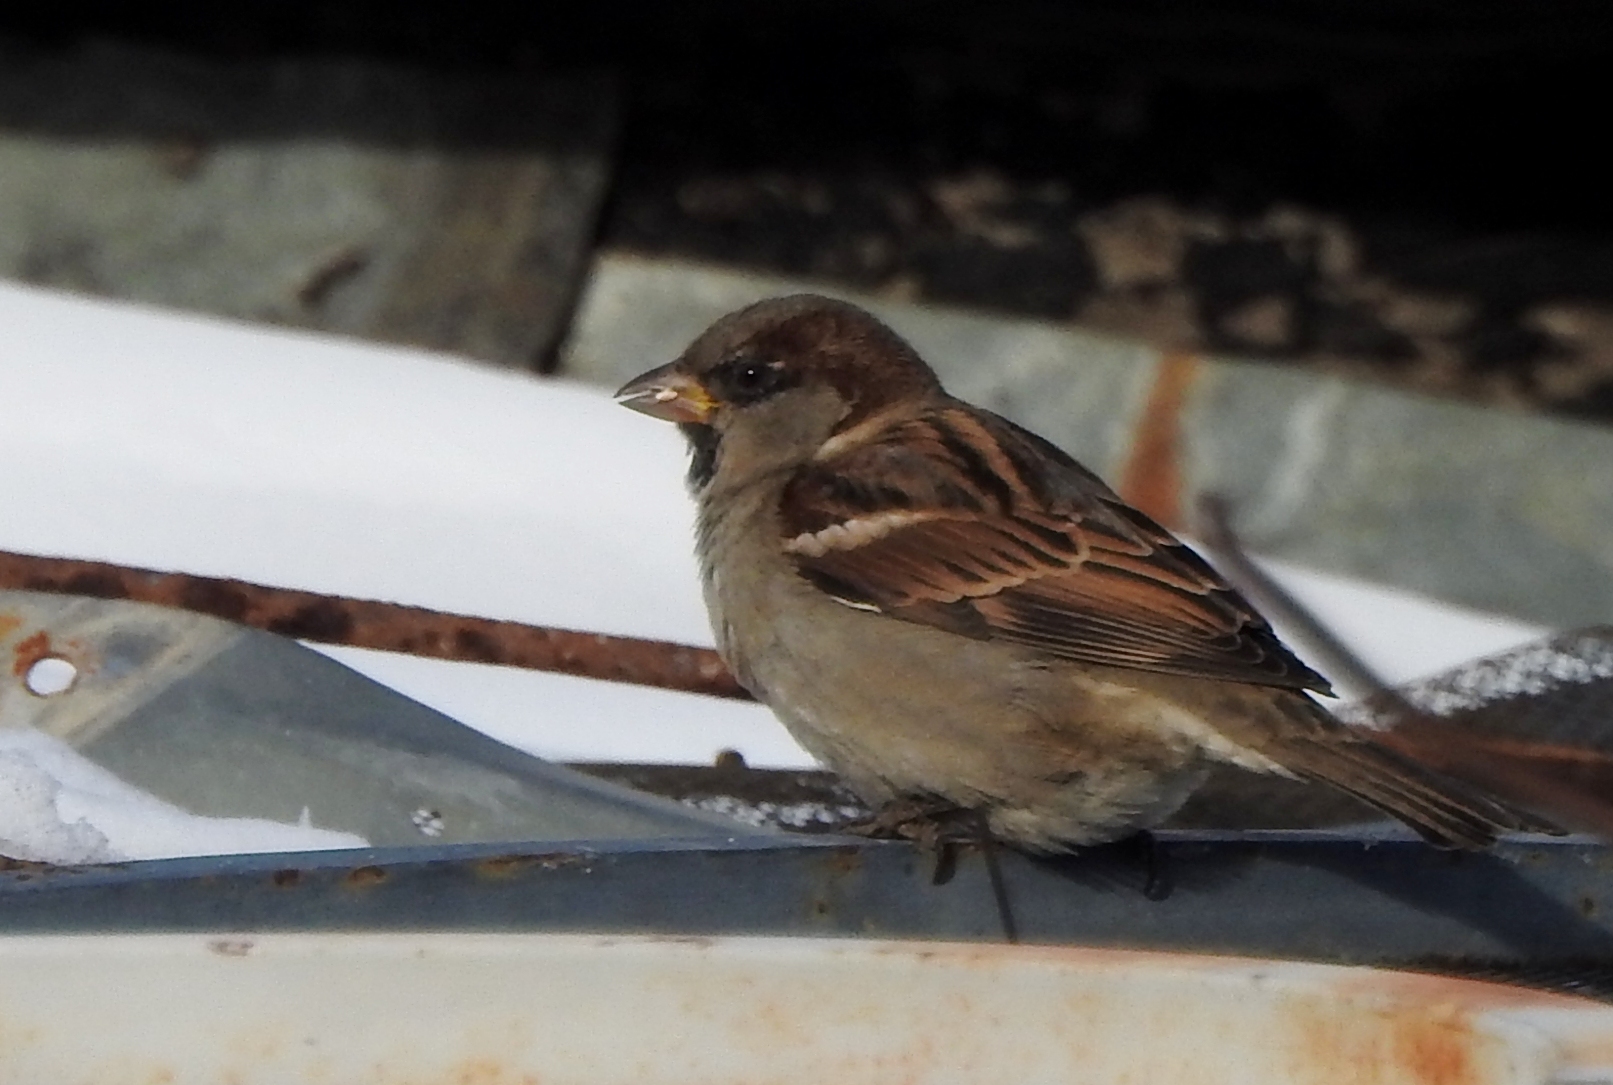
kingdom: Animalia
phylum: Chordata
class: Aves
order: Passeriformes
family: Passeridae
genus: Passer
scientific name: Passer domesticus
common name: House sparrow
